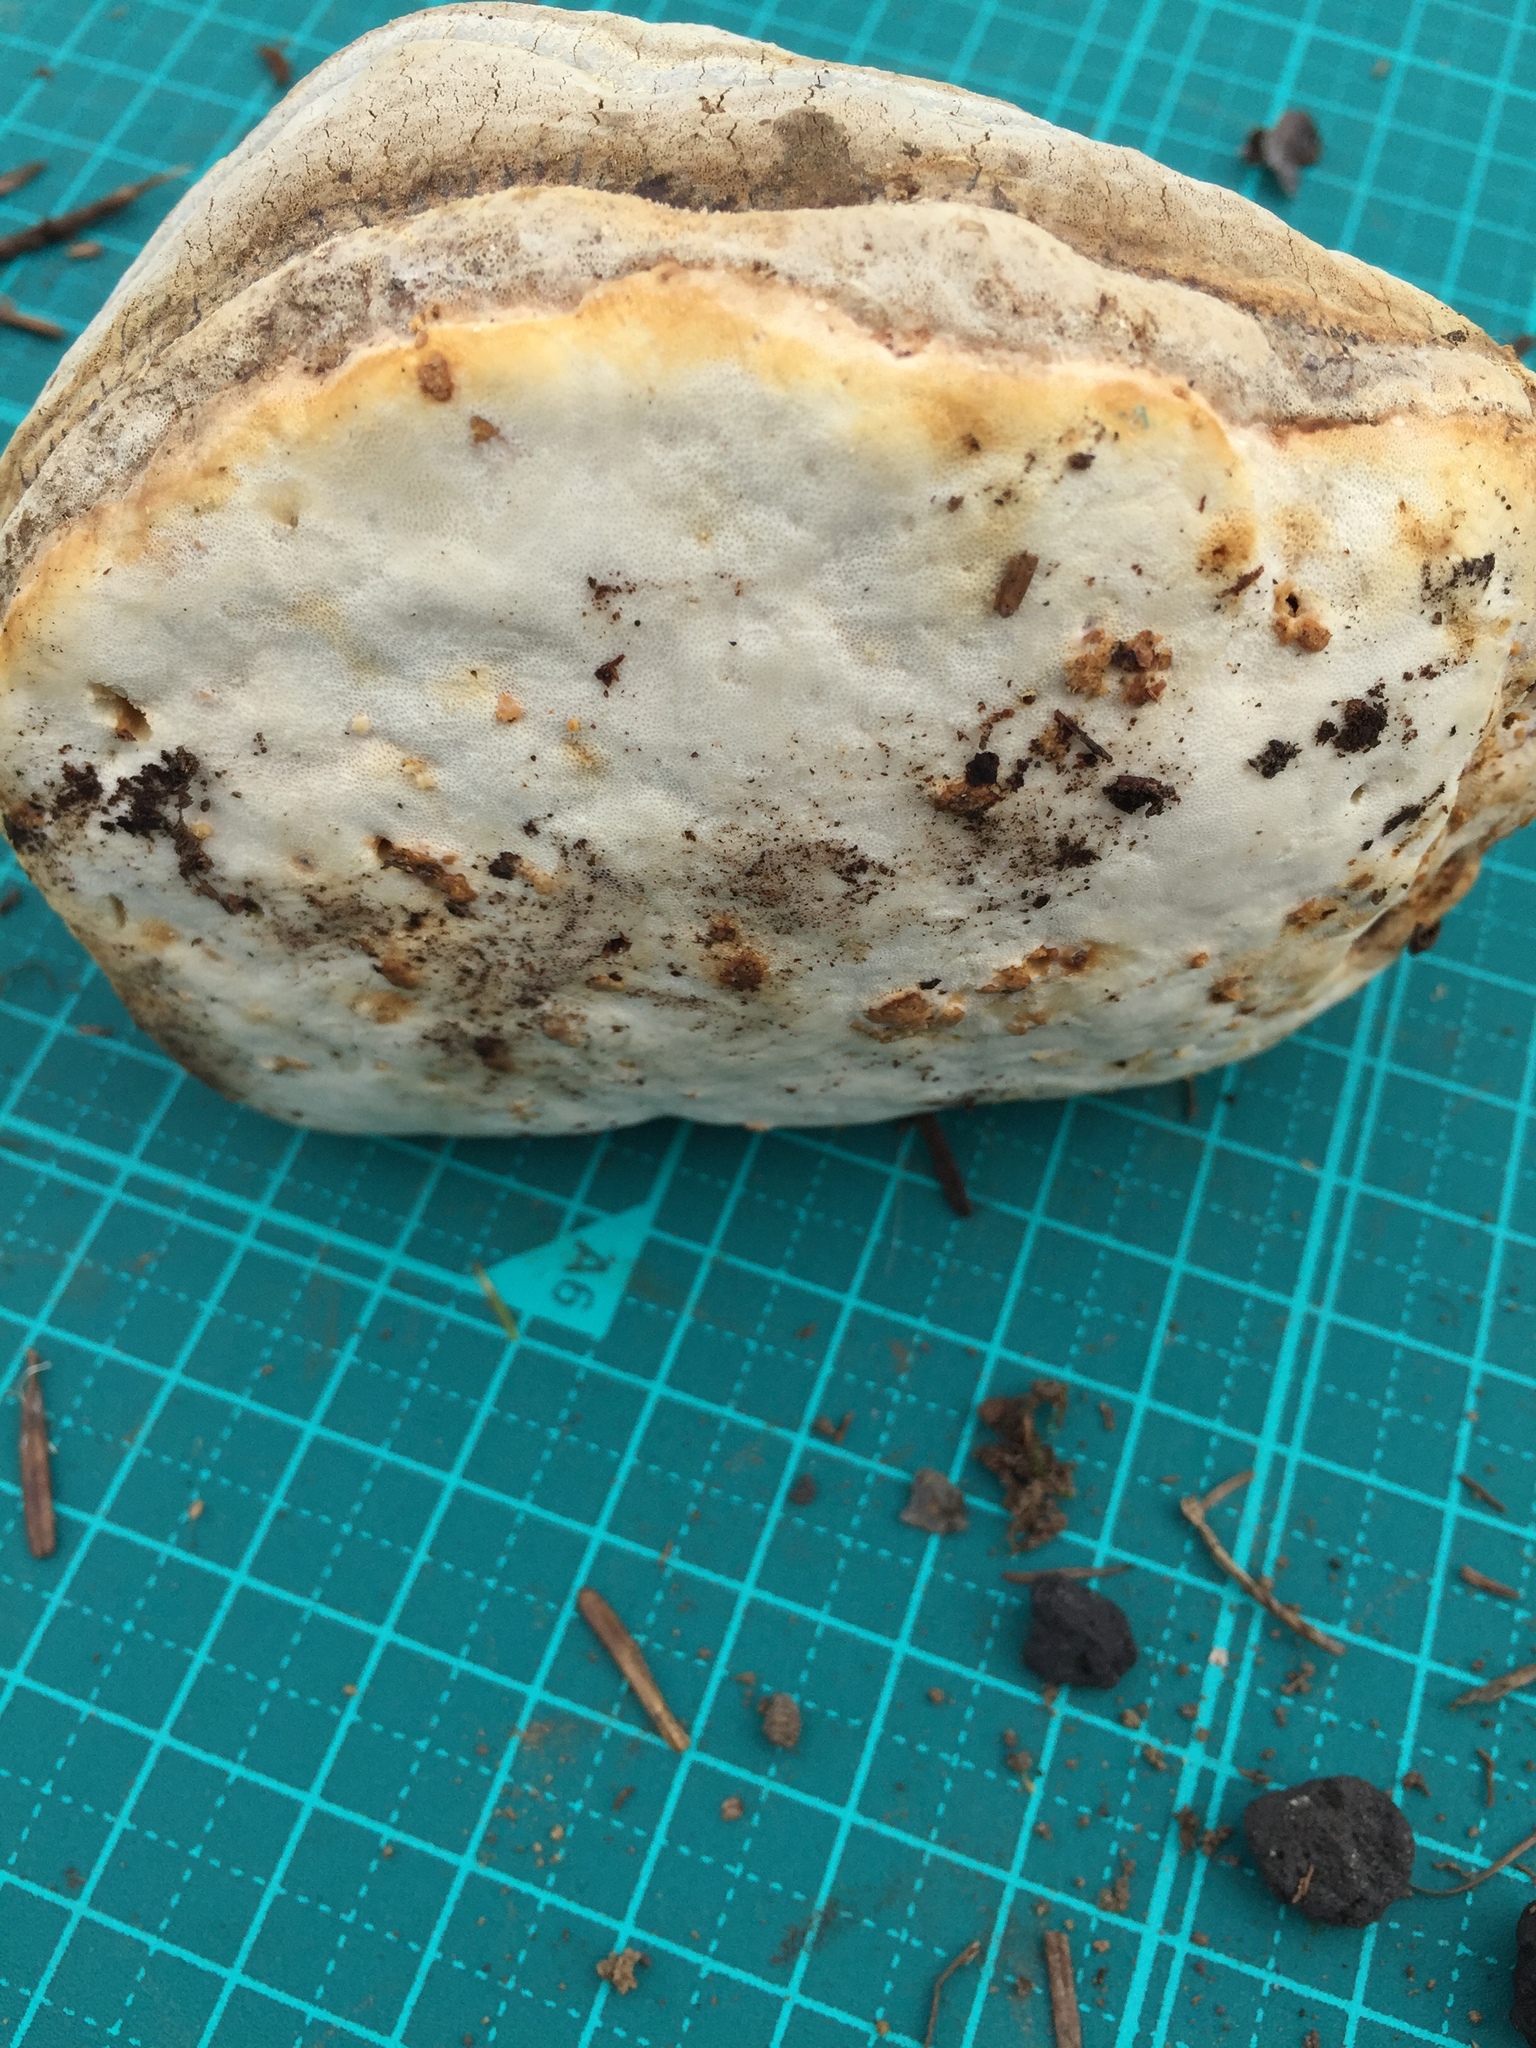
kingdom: Fungi
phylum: Basidiomycota
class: Agaricomycetes
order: Polyporales
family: Fomitopsidaceae
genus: Fomitopsis
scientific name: Fomitopsis officinalis
